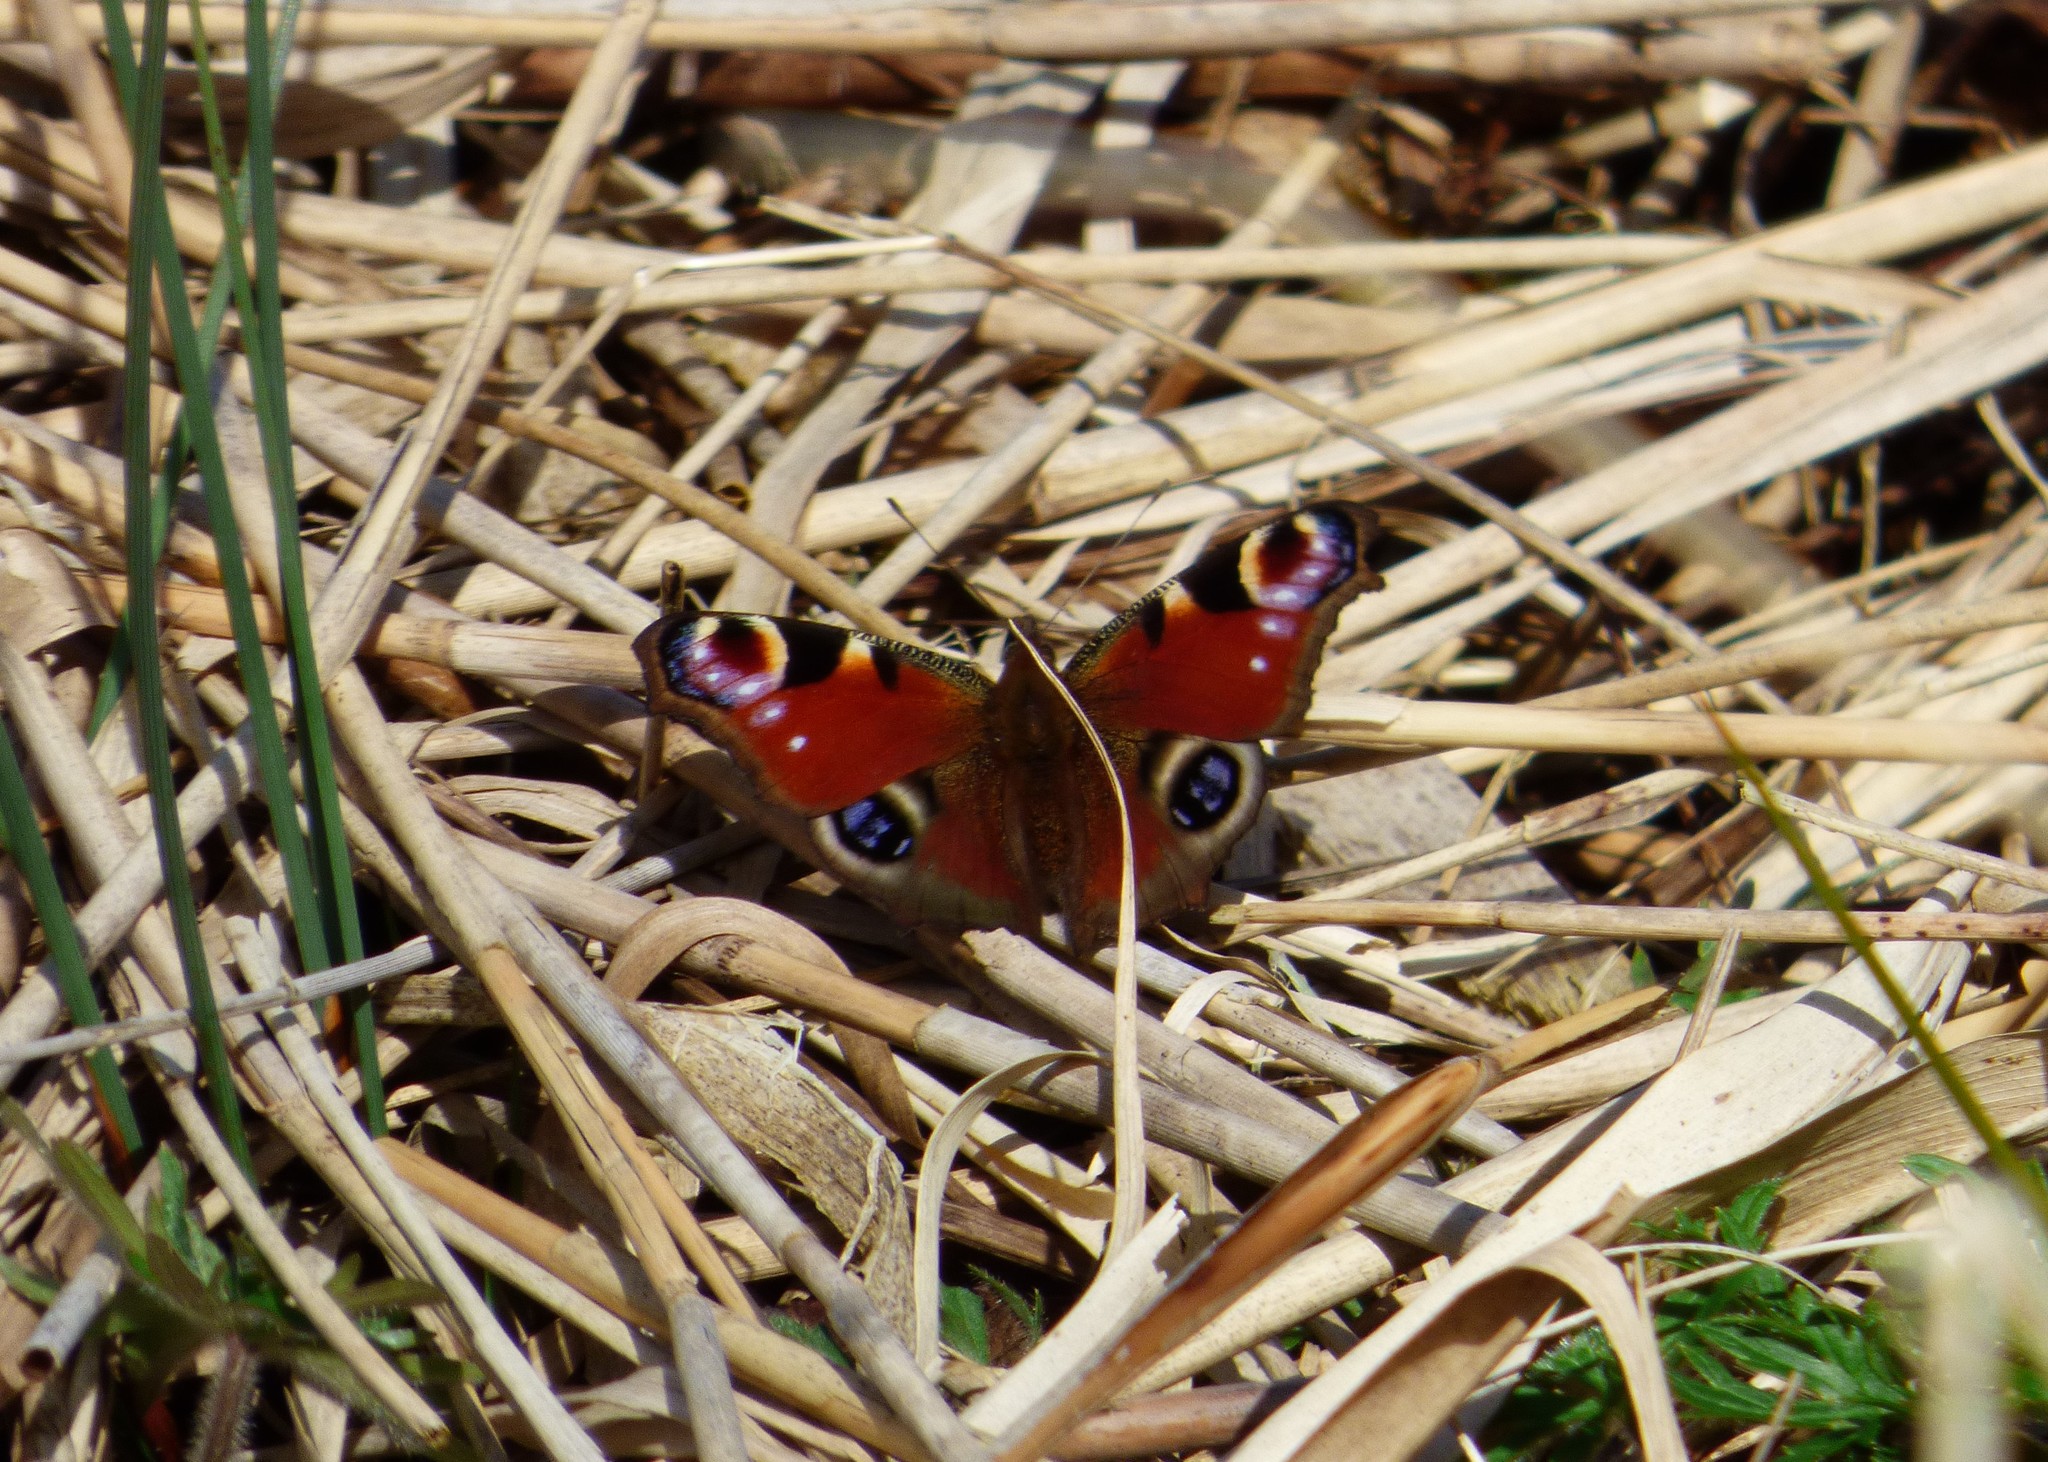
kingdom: Animalia
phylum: Arthropoda
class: Insecta
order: Lepidoptera
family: Nymphalidae
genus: Aglais
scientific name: Aglais io
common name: Peacock
